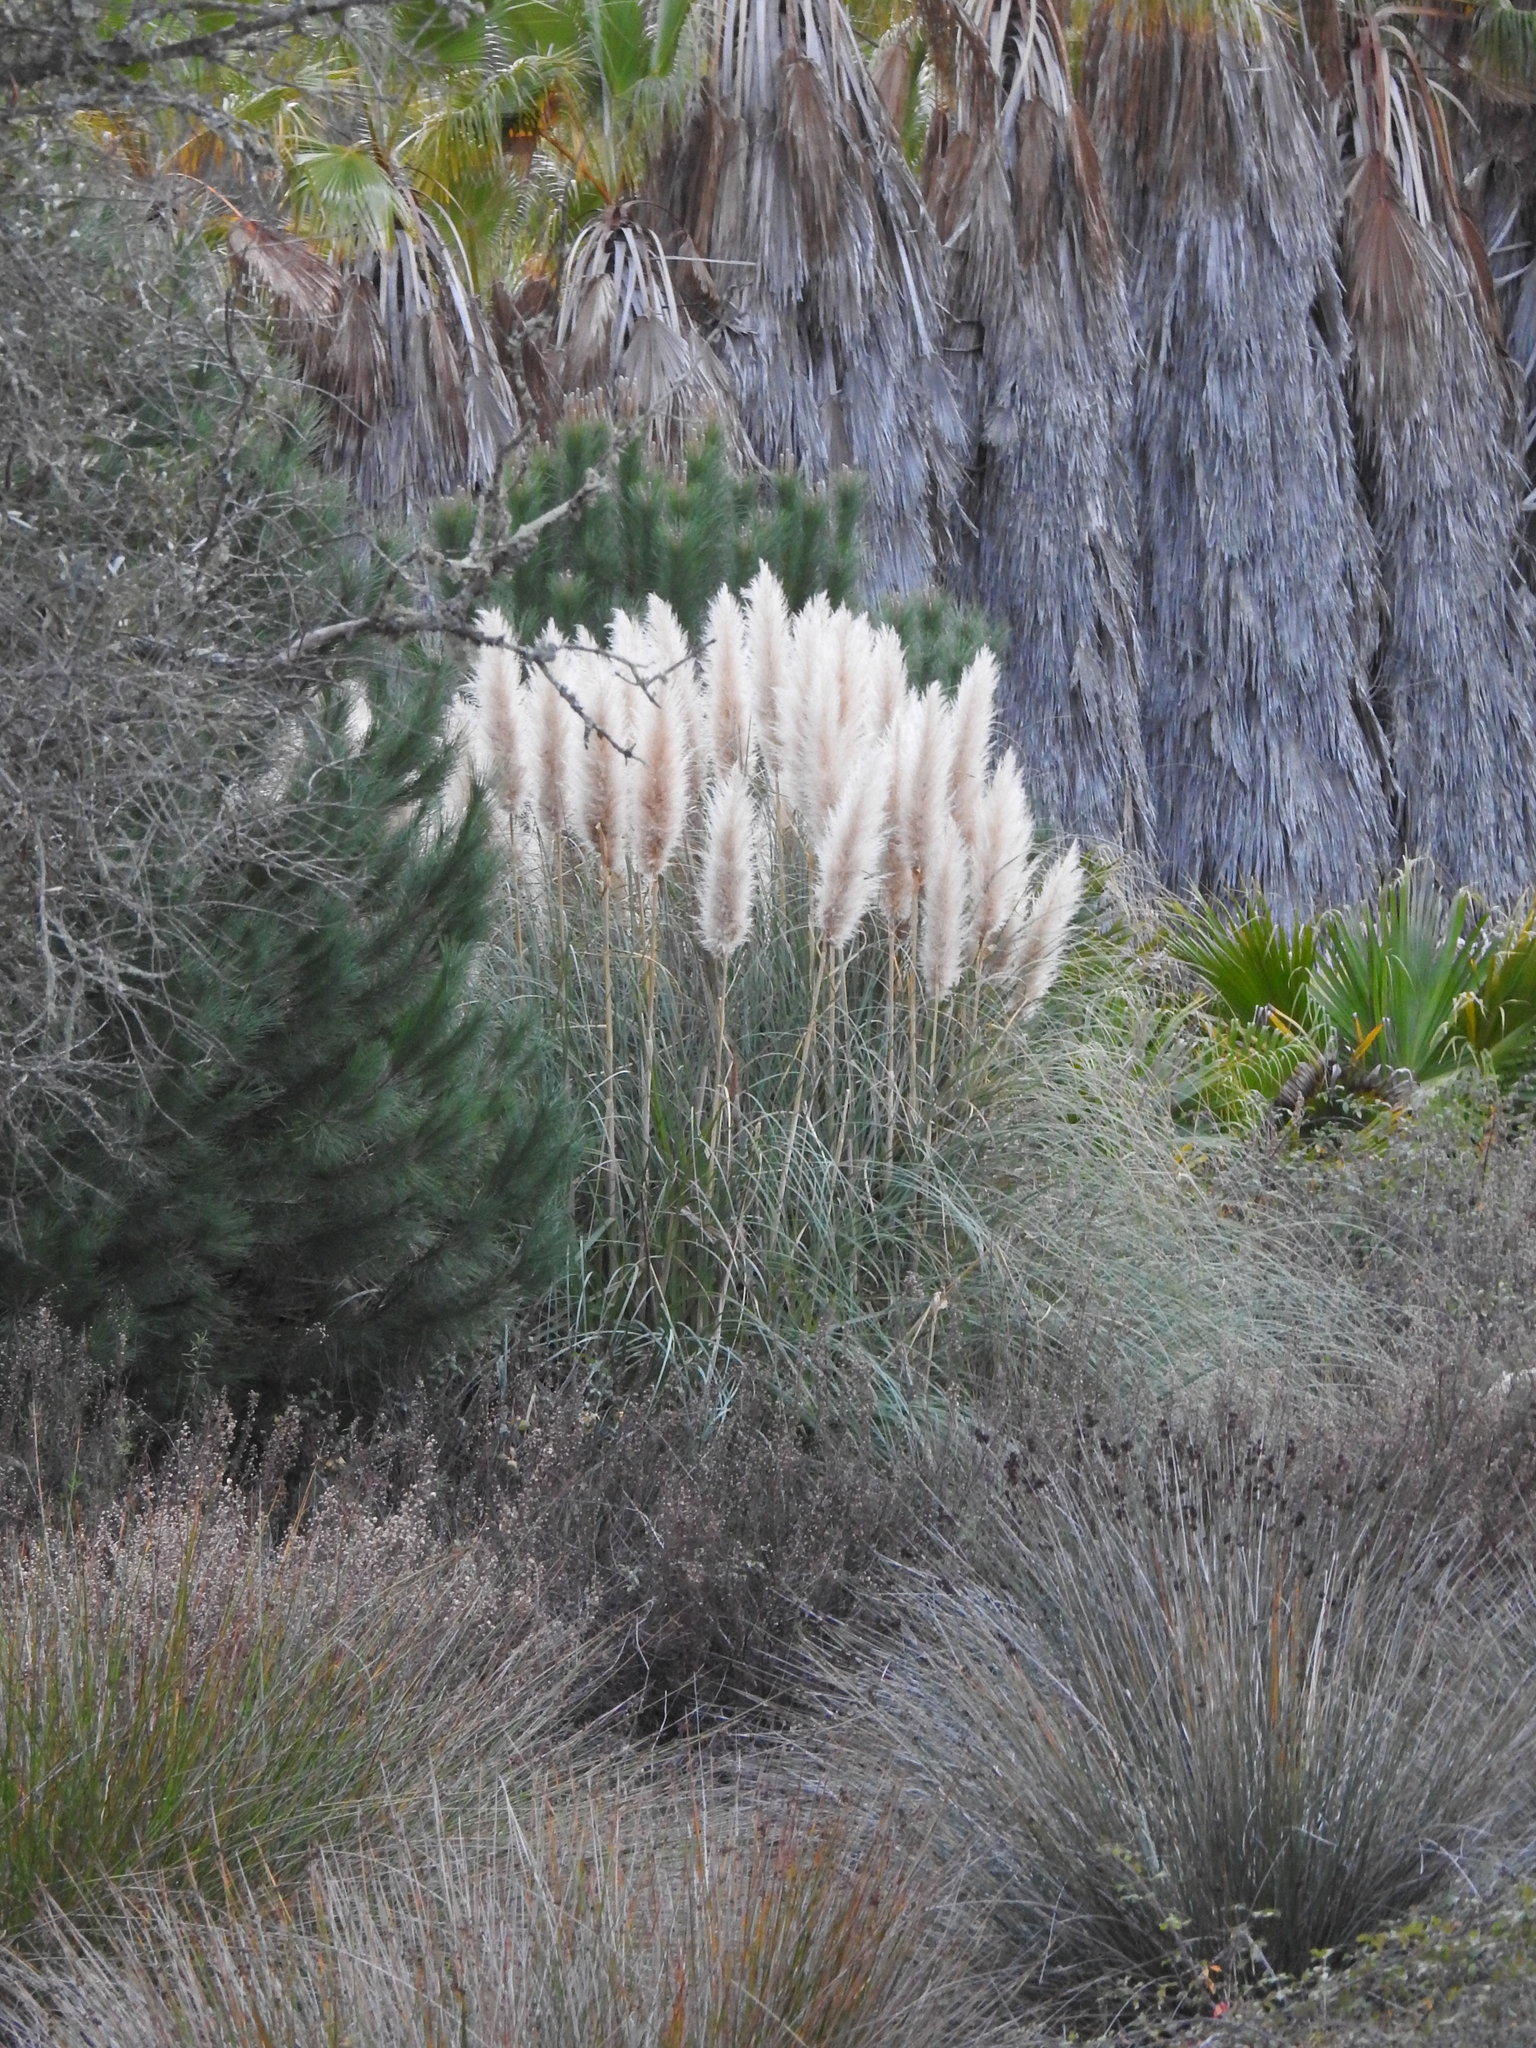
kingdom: Plantae
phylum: Tracheophyta
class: Liliopsida
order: Poales
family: Poaceae
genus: Cortaderia
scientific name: Cortaderia selloana
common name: Uruguayan pampas grass
